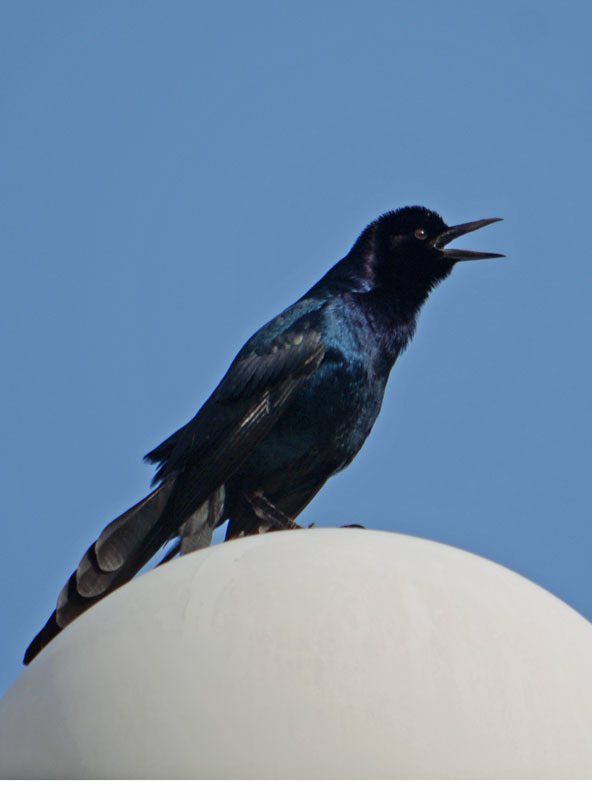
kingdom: Animalia
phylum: Chordata
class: Aves
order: Passeriformes
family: Icteridae
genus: Quiscalus
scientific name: Quiscalus major
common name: Boat-tailed grackle
